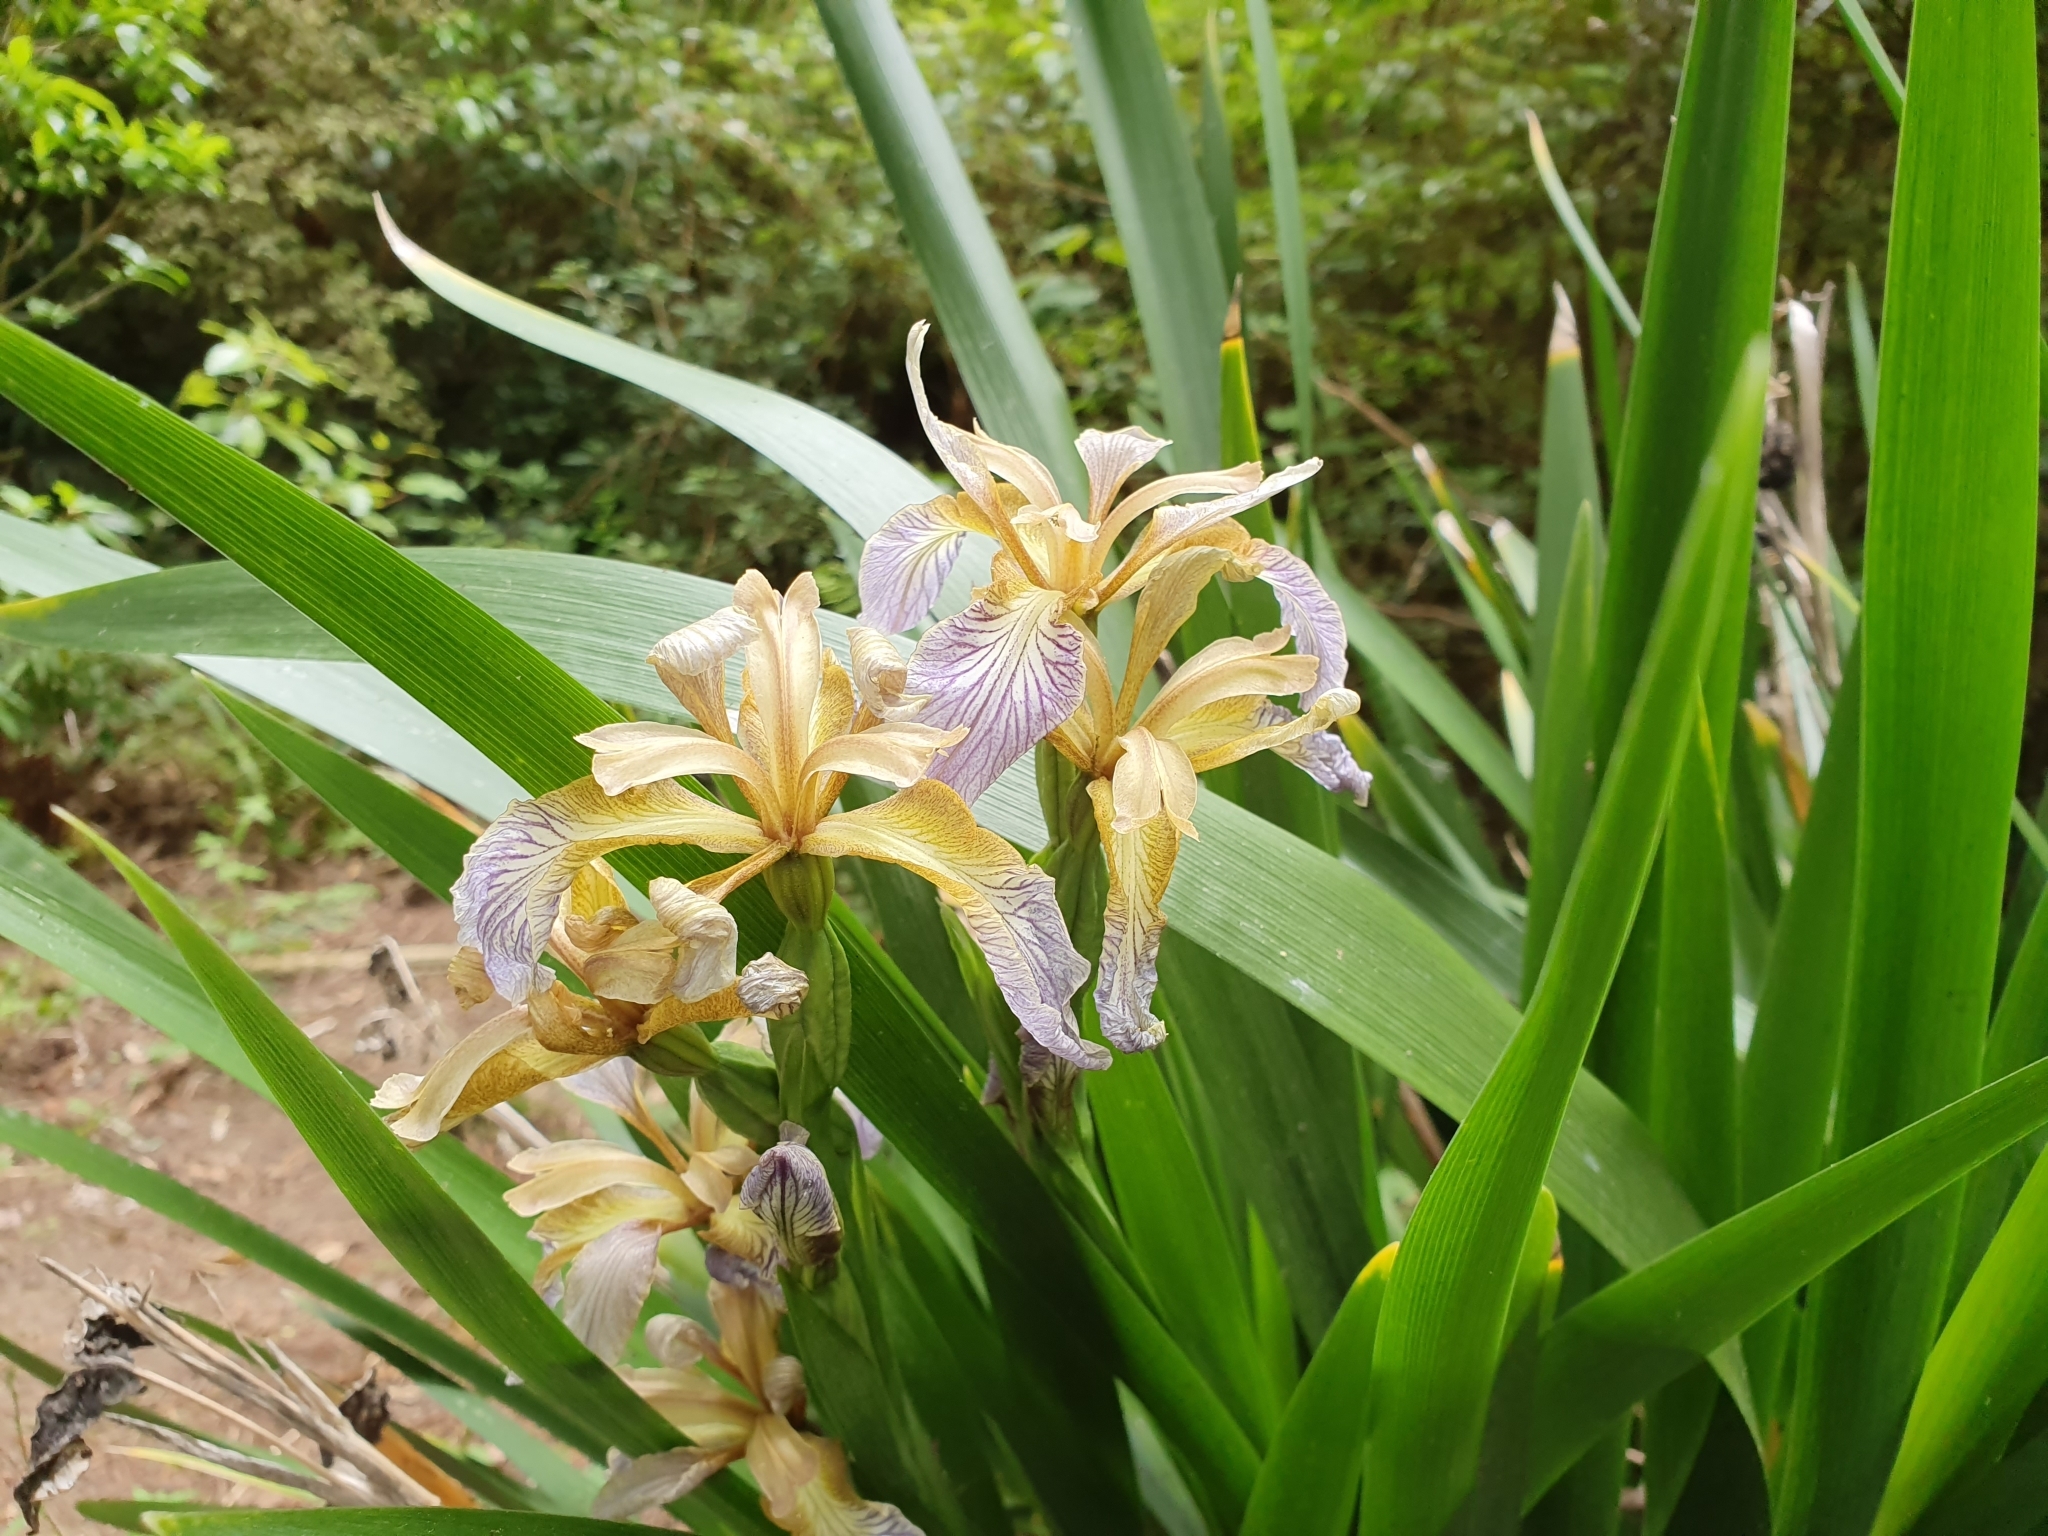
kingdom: Plantae
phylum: Tracheophyta
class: Liliopsida
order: Asparagales
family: Iridaceae
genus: Iris
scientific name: Iris foetidissima
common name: Stinking iris
